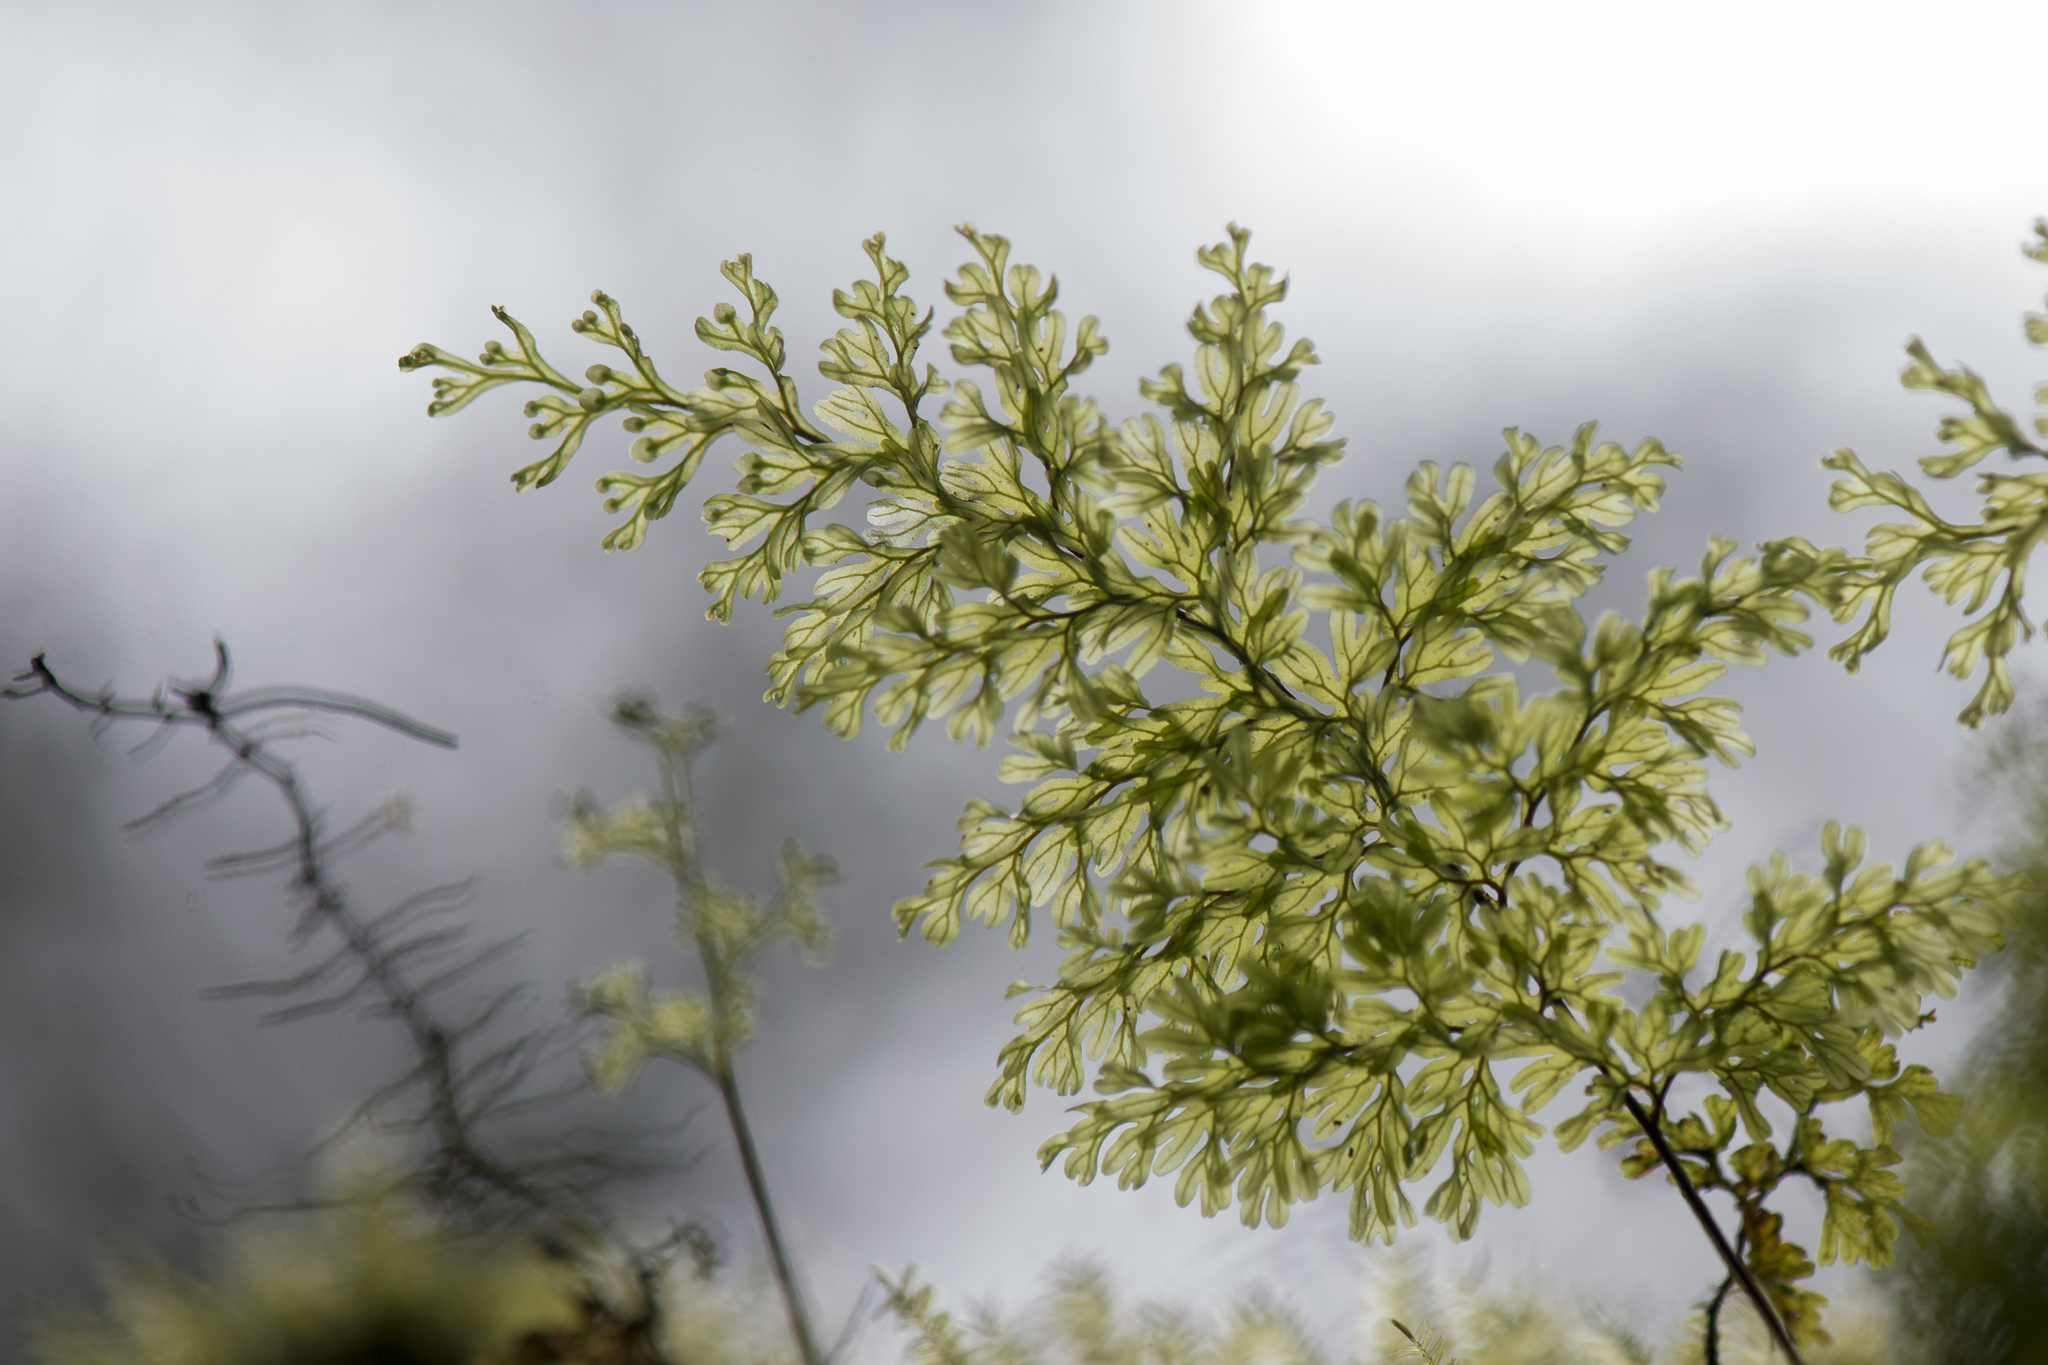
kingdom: Plantae
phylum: Tracheophyta
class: Polypodiopsida
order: Hymenophyllales
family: Hymenophyllaceae
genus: Hymenophyllum
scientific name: Hymenophyllum fujisanense
